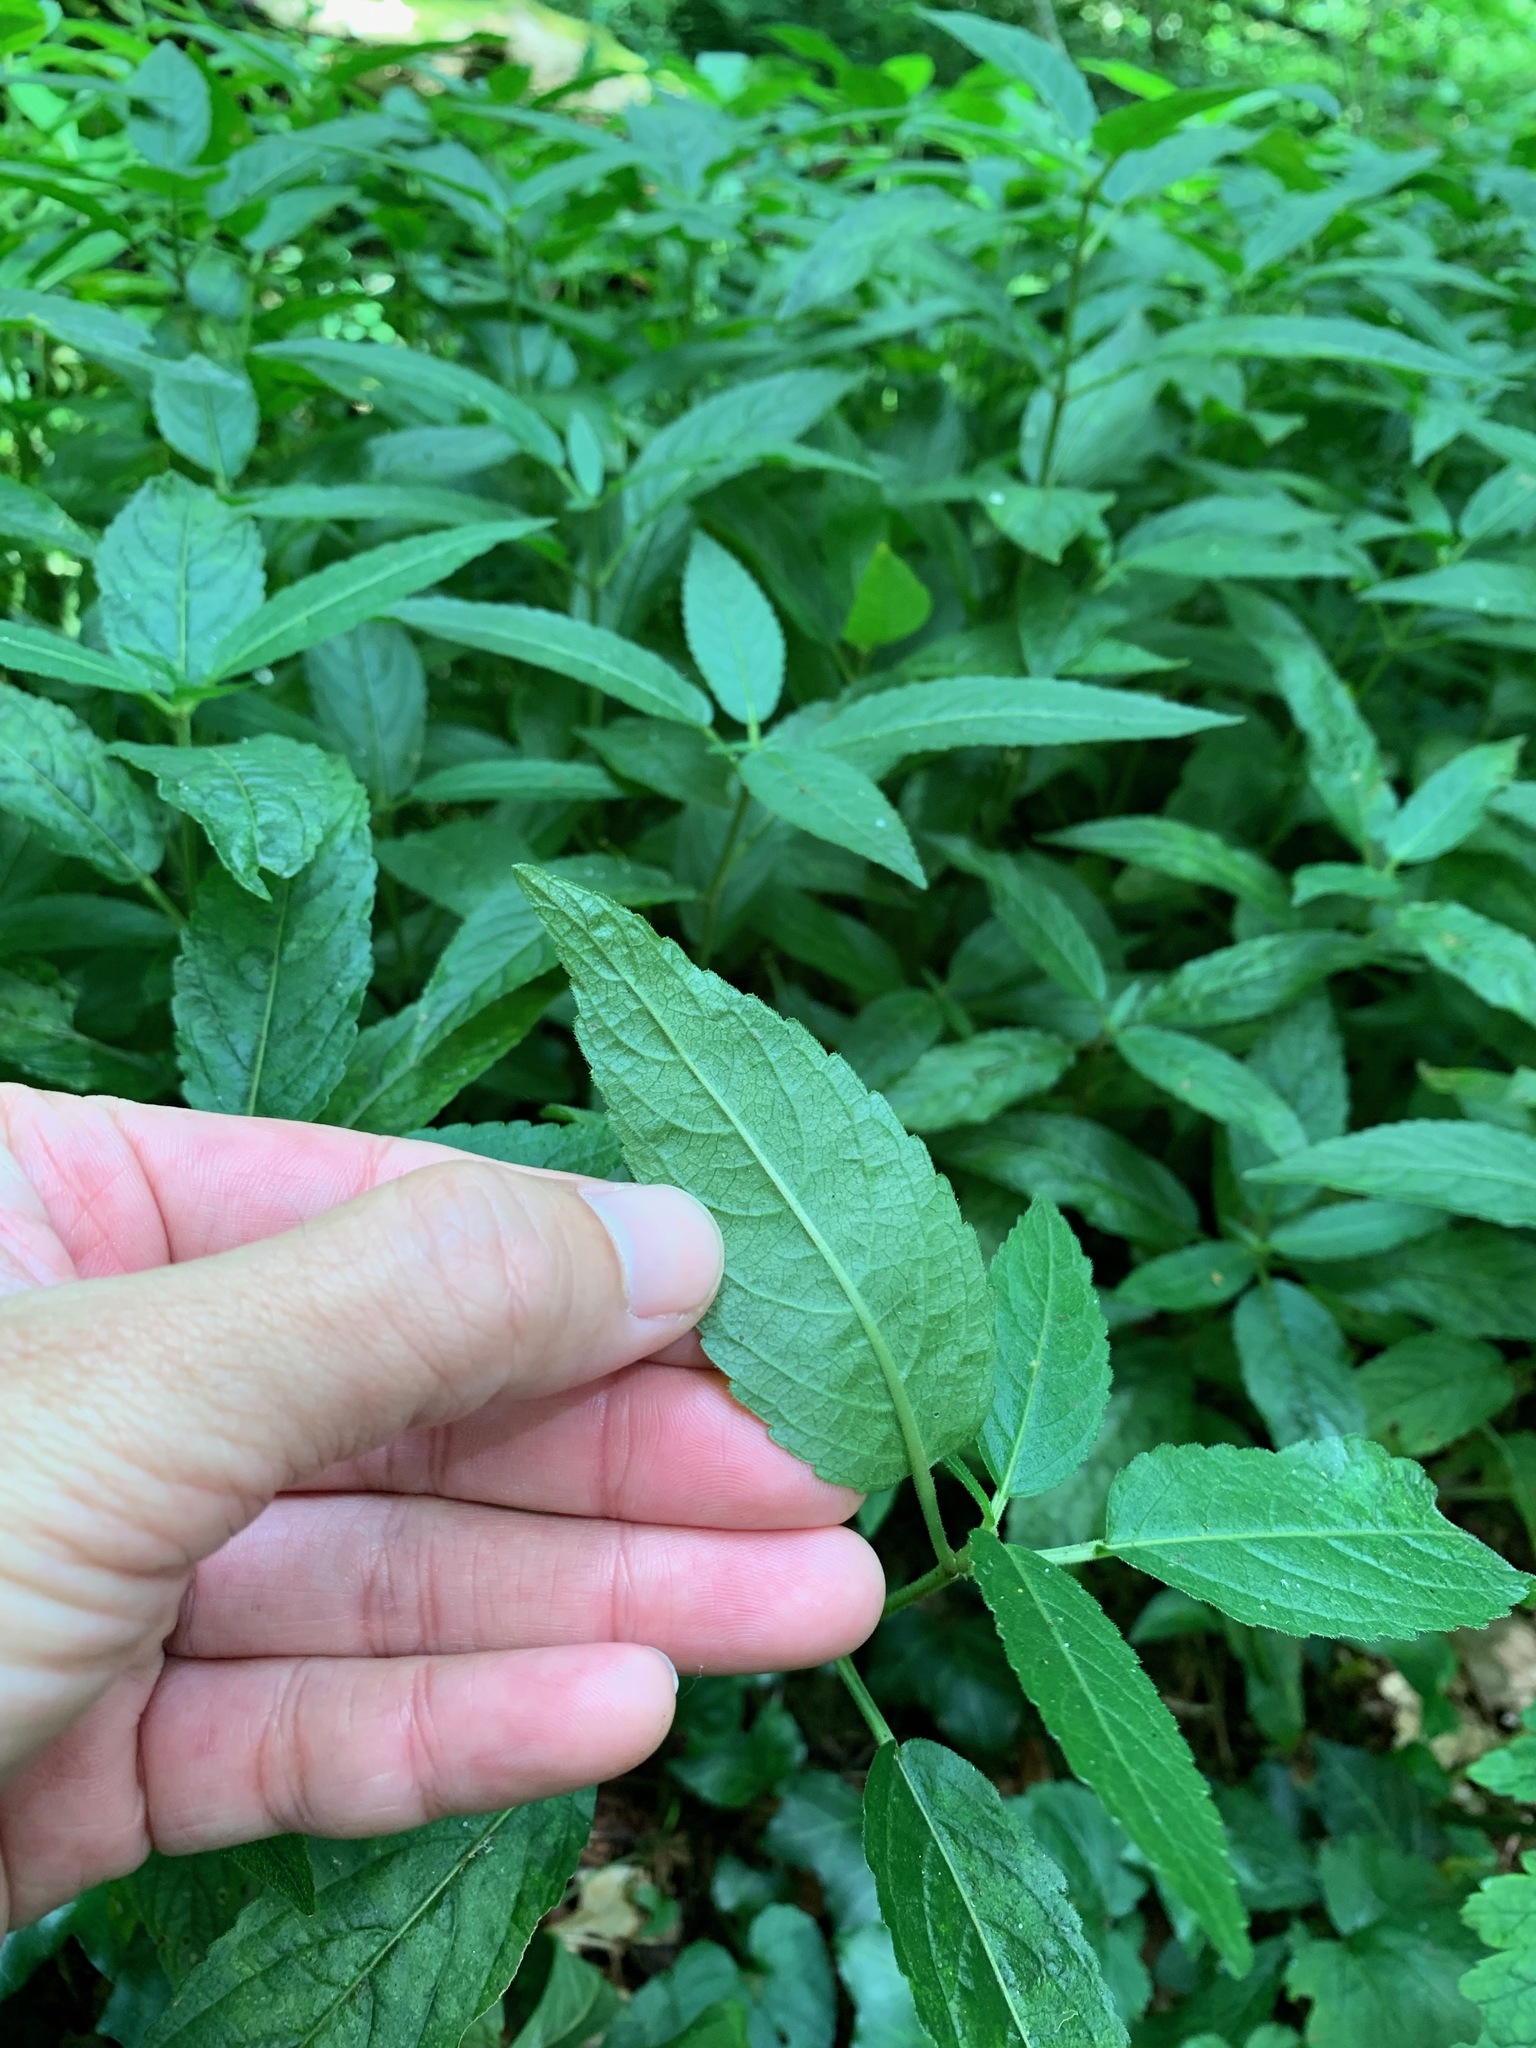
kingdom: Plantae
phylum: Tracheophyta
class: Magnoliopsida
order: Malpighiales
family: Euphorbiaceae
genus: Mercurialis
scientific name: Mercurialis perennis
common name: Dog mercury
